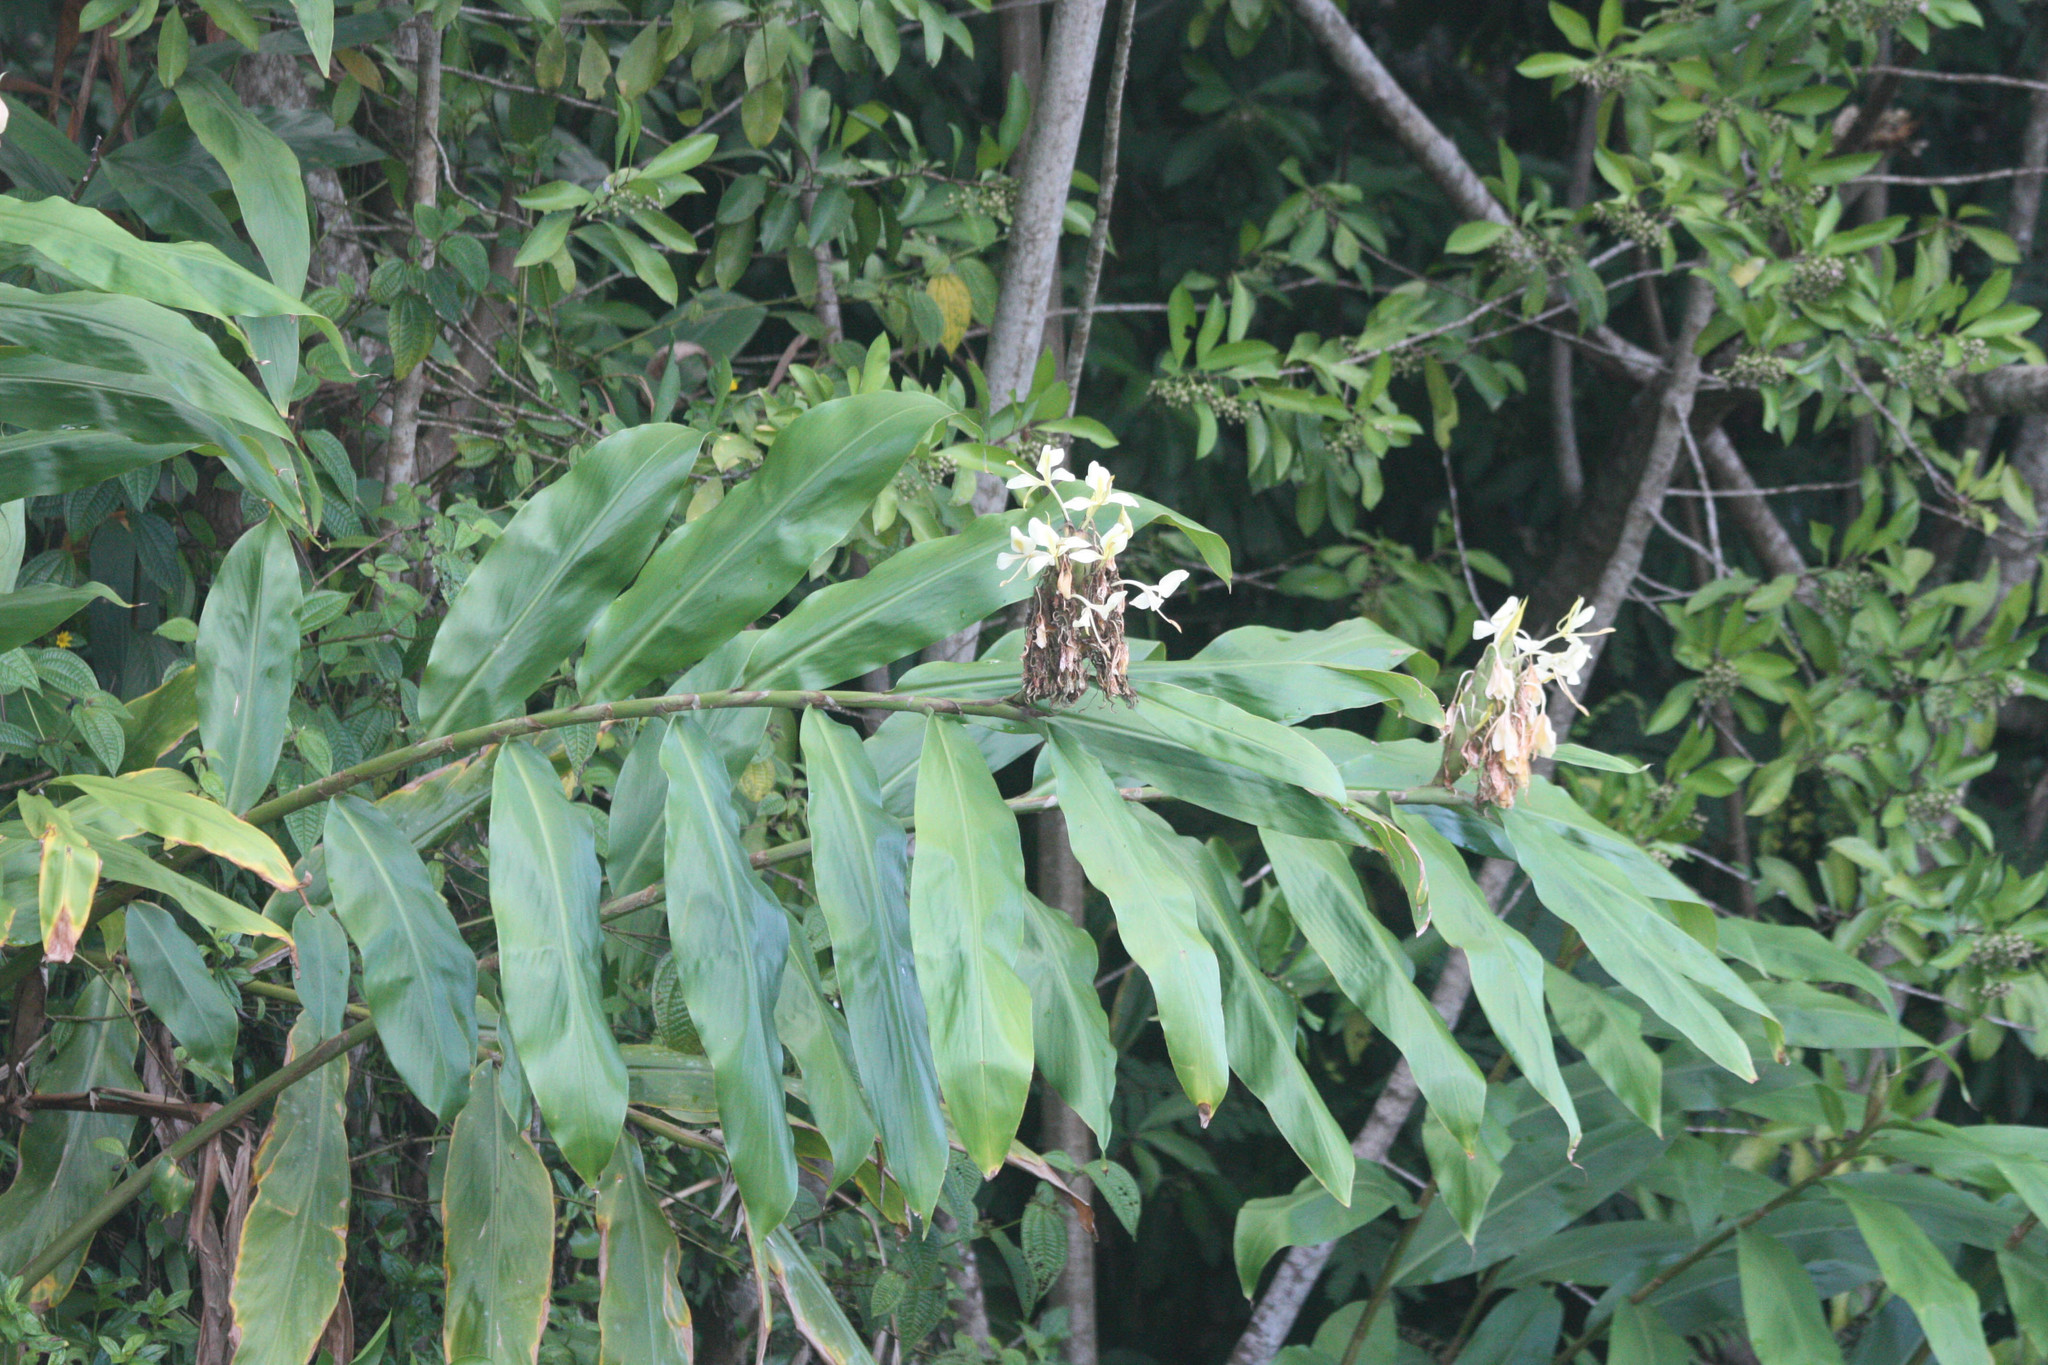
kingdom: Plantae
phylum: Tracheophyta
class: Liliopsida
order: Zingiberales
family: Zingiberaceae
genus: Hedychium
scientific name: Hedychium coronarium
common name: White garland-lily
